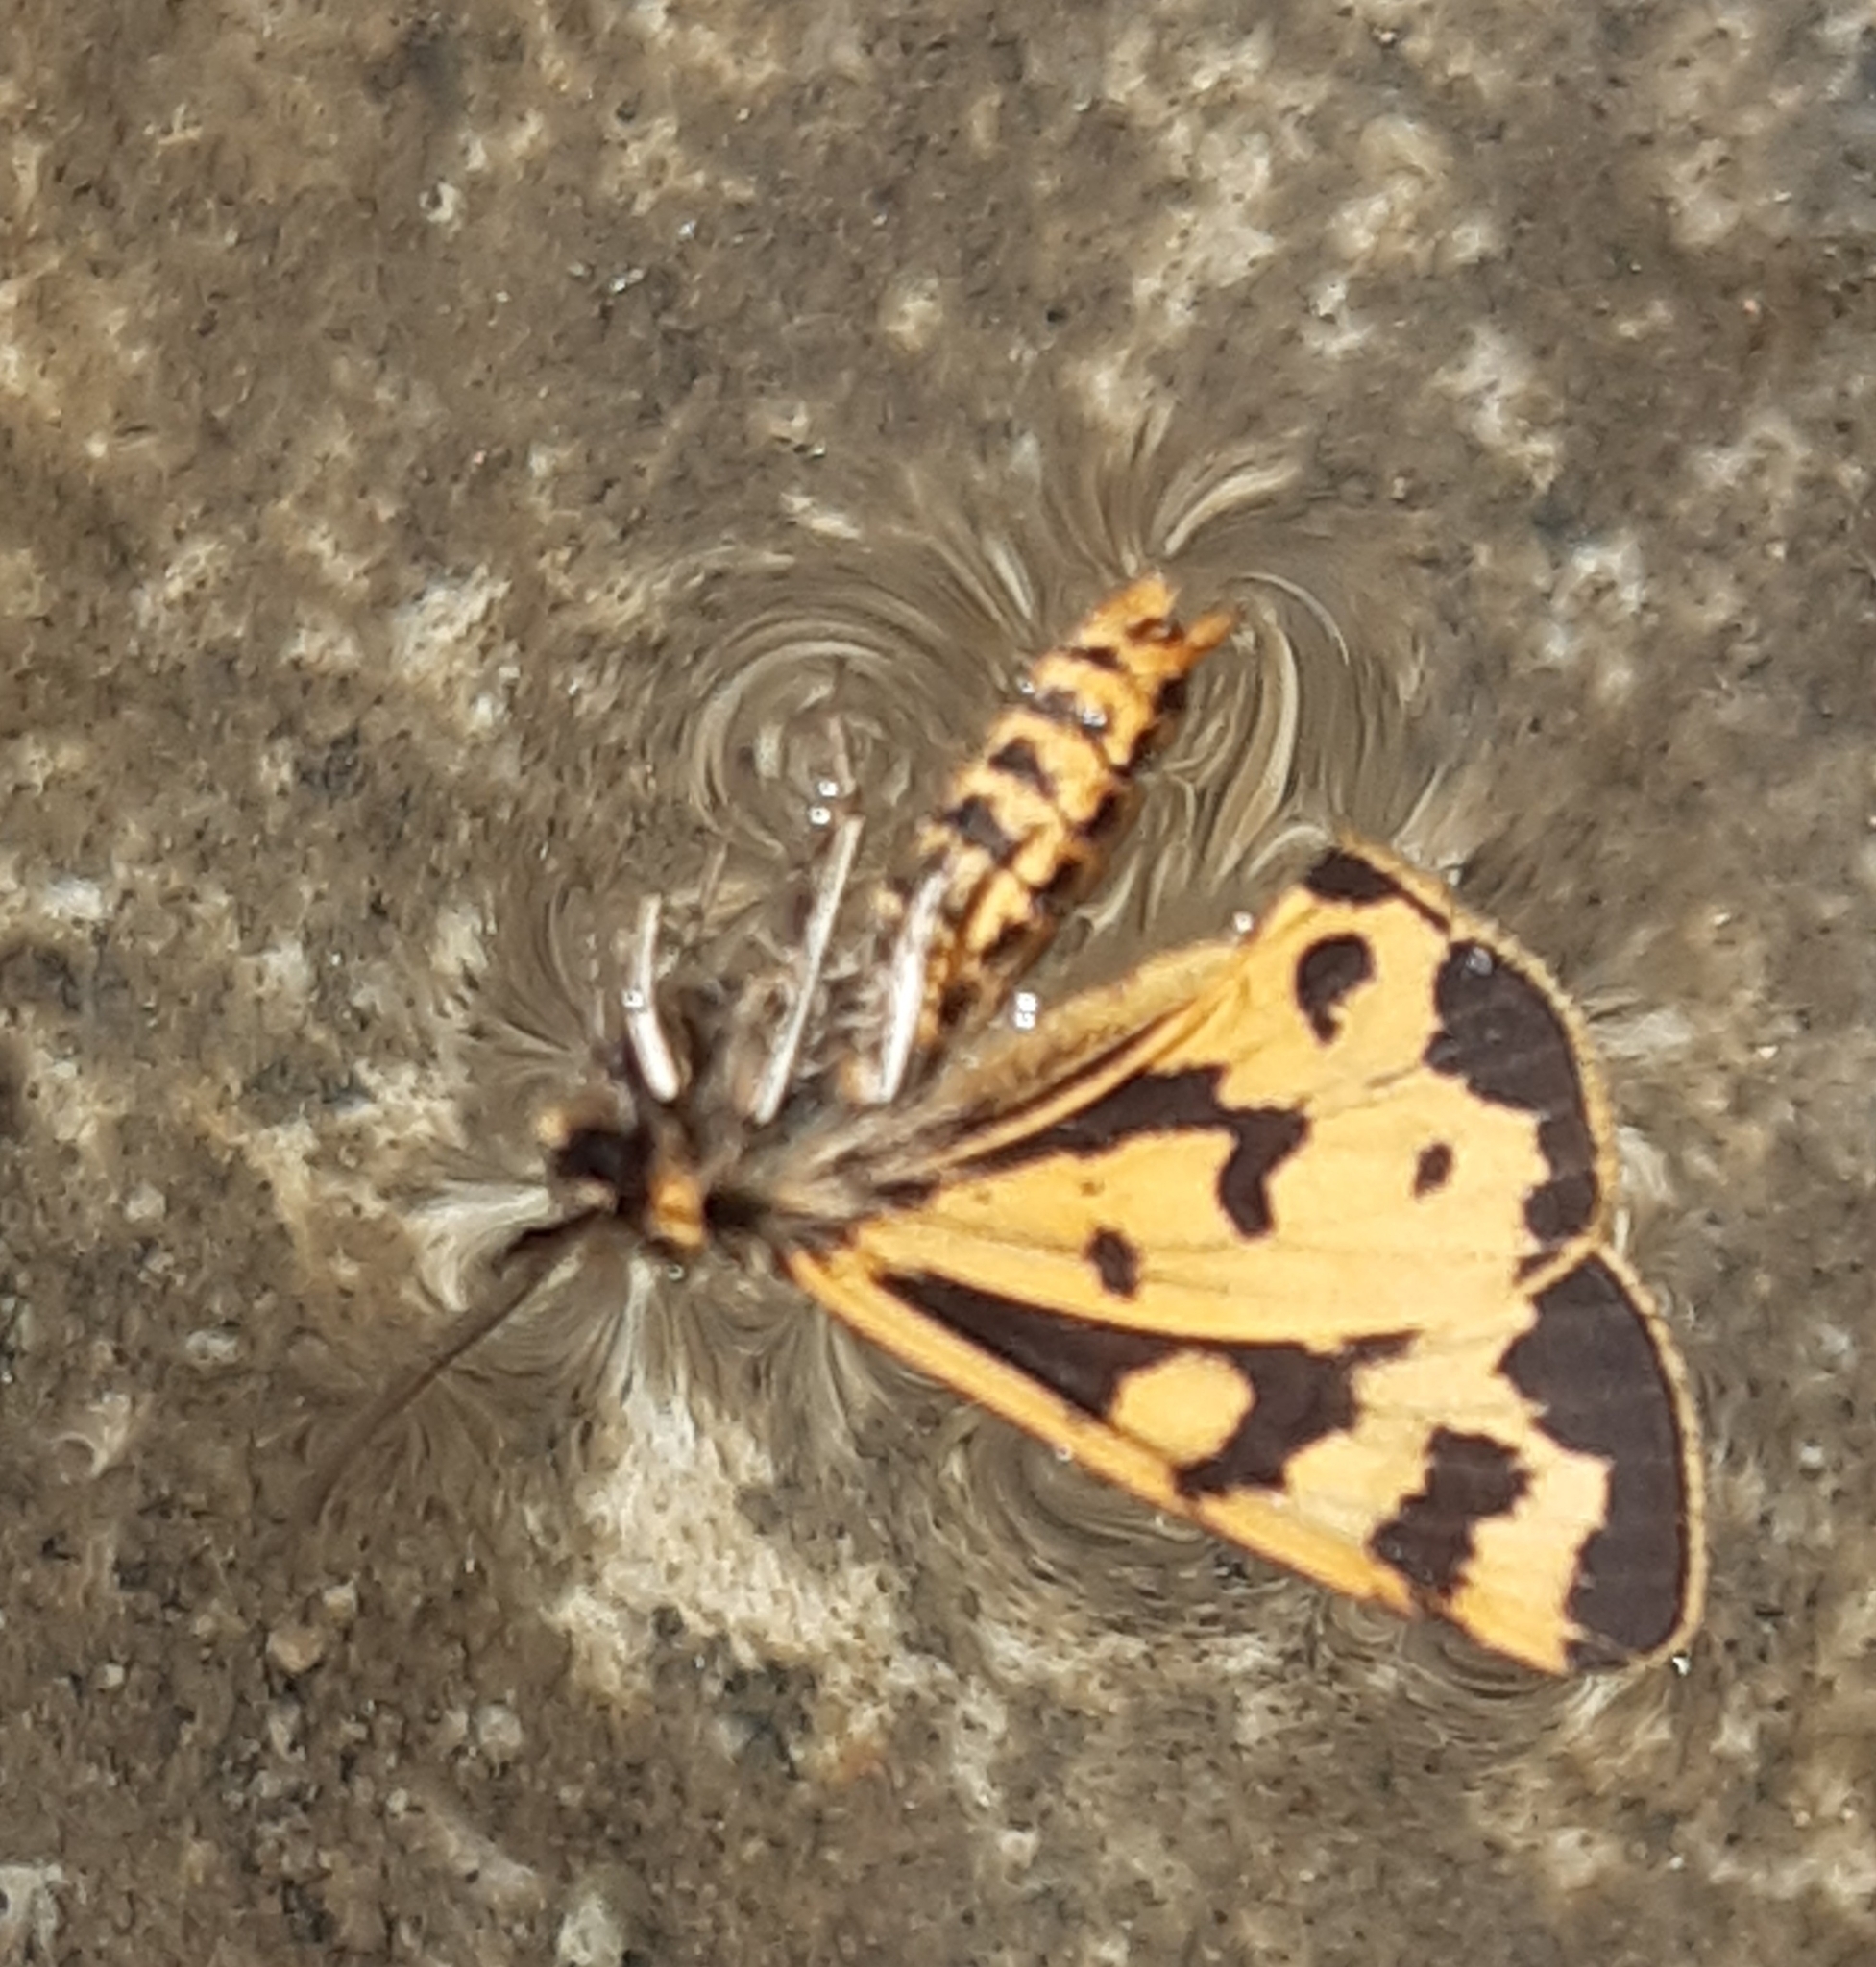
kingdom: Animalia
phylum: Arthropoda
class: Insecta
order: Lepidoptera
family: Erebidae
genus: Parasemia
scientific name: Parasemia plantaginis
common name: Wood tiger
